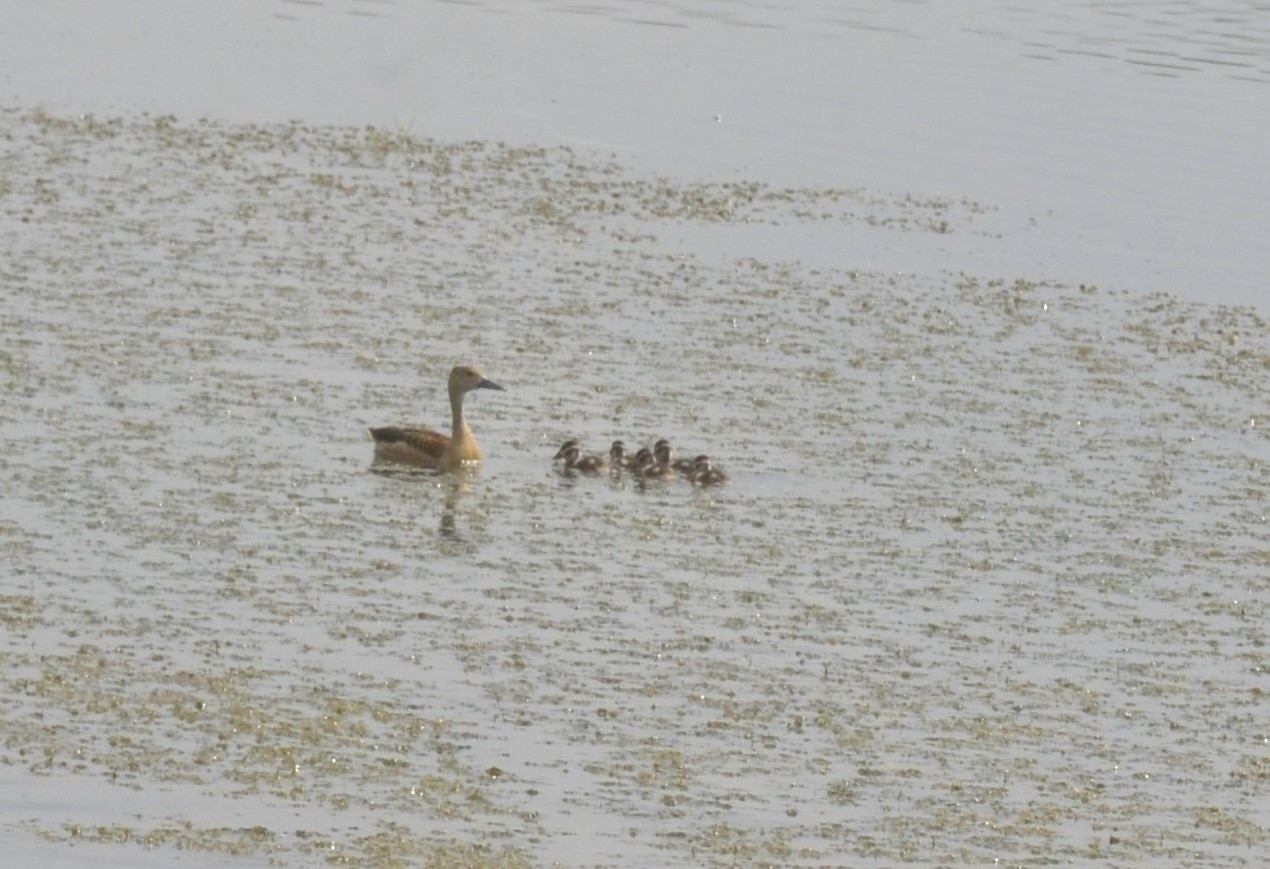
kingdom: Animalia
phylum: Chordata
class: Aves
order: Anseriformes
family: Anatidae
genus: Dendrocygna
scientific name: Dendrocygna javanica
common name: Lesser whistling-duck
